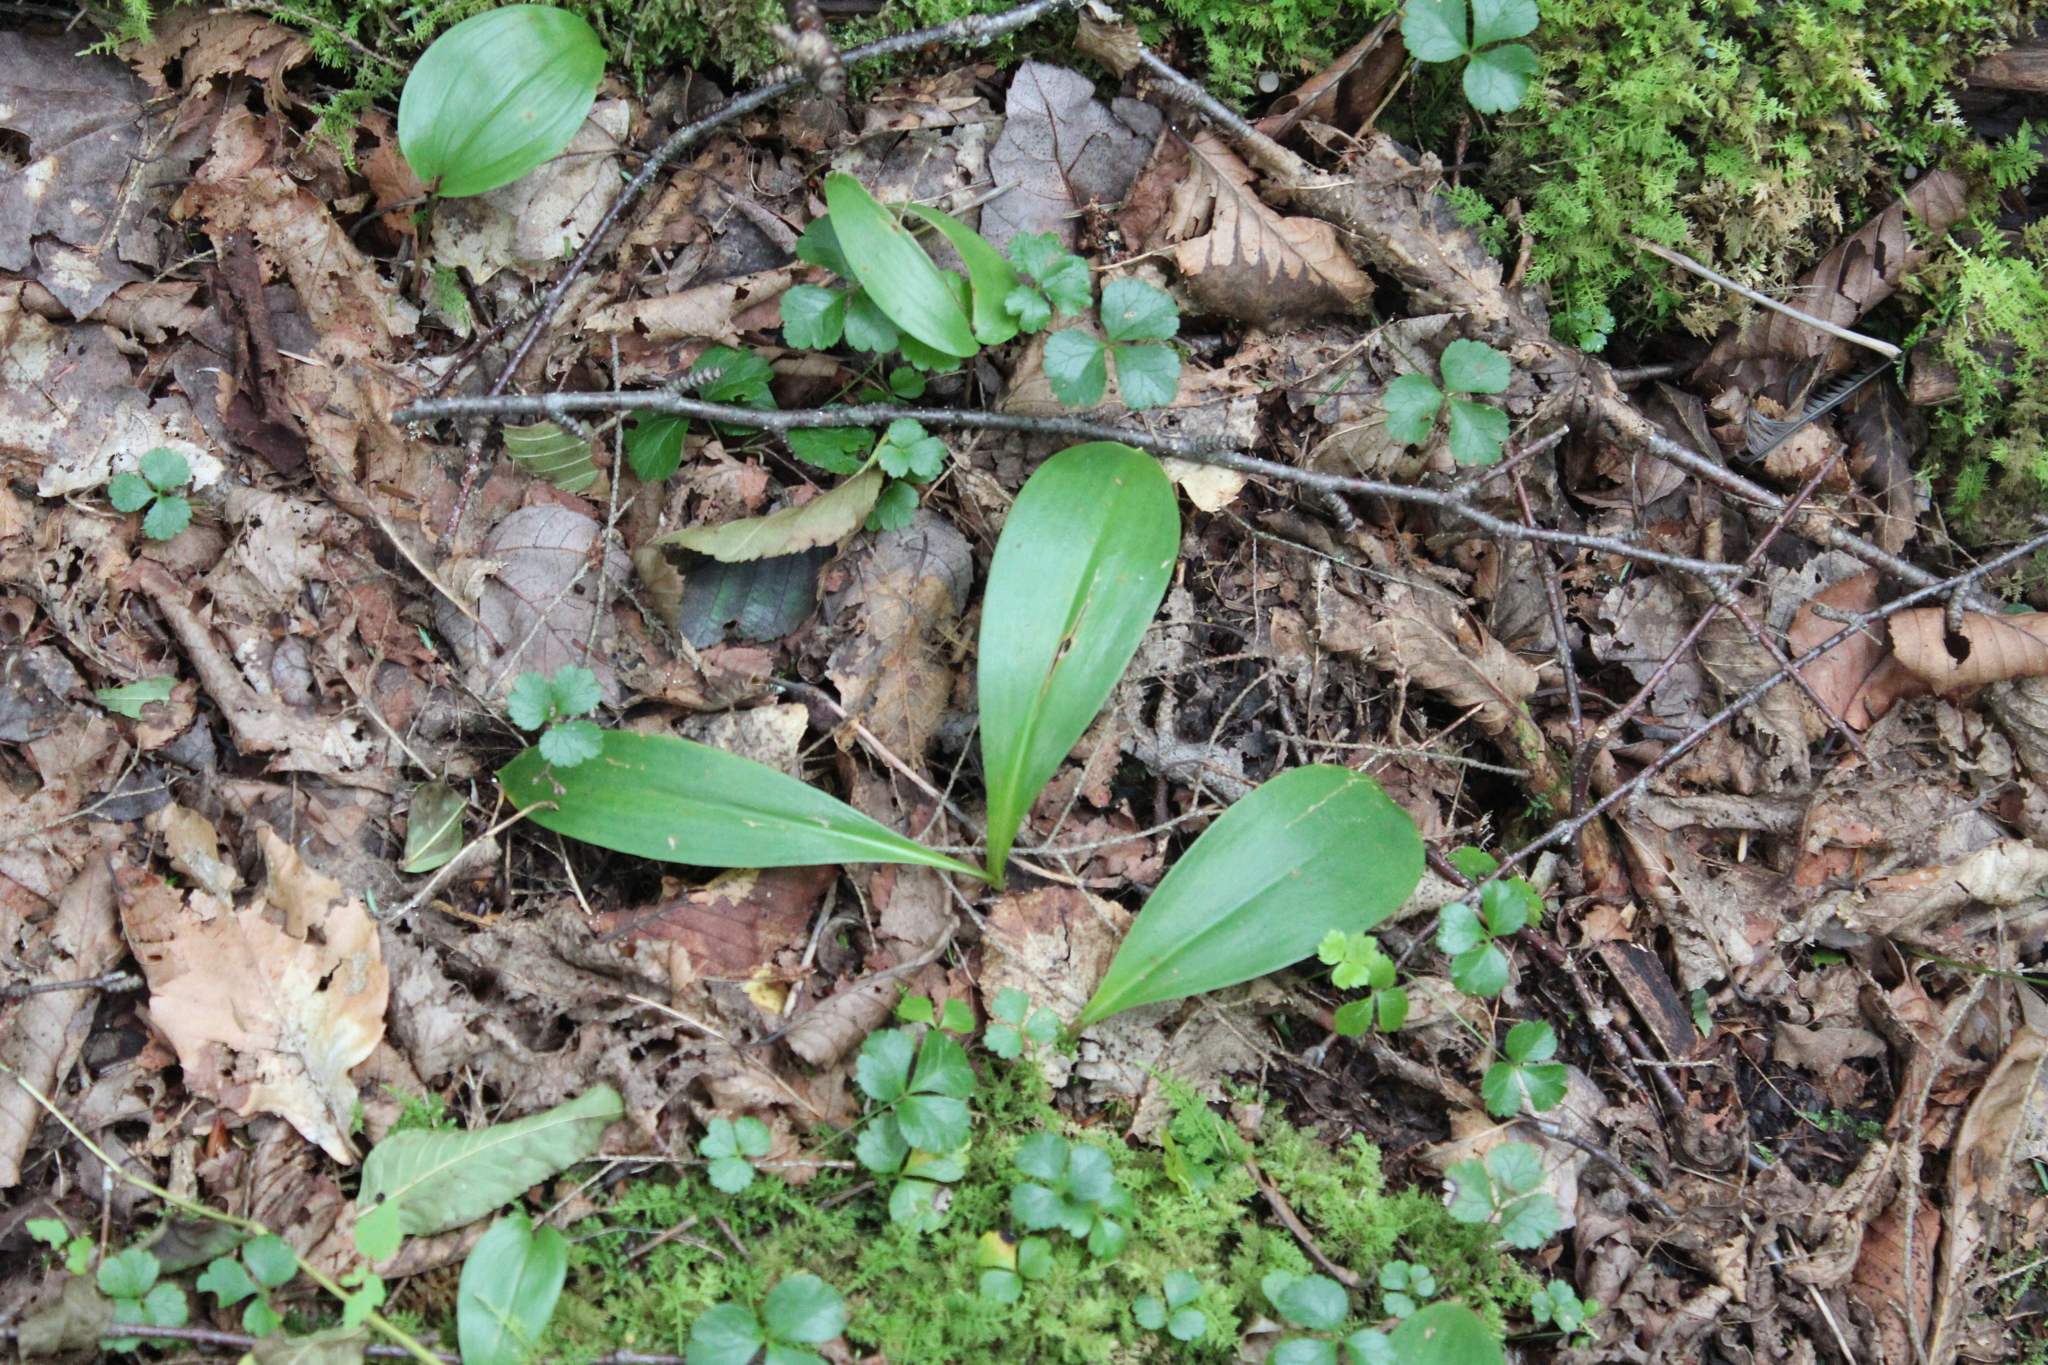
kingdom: Plantae
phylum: Tracheophyta
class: Magnoliopsida
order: Ranunculales
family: Ranunculaceae
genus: Coptis
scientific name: Coptis trifolia
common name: Canker-root
